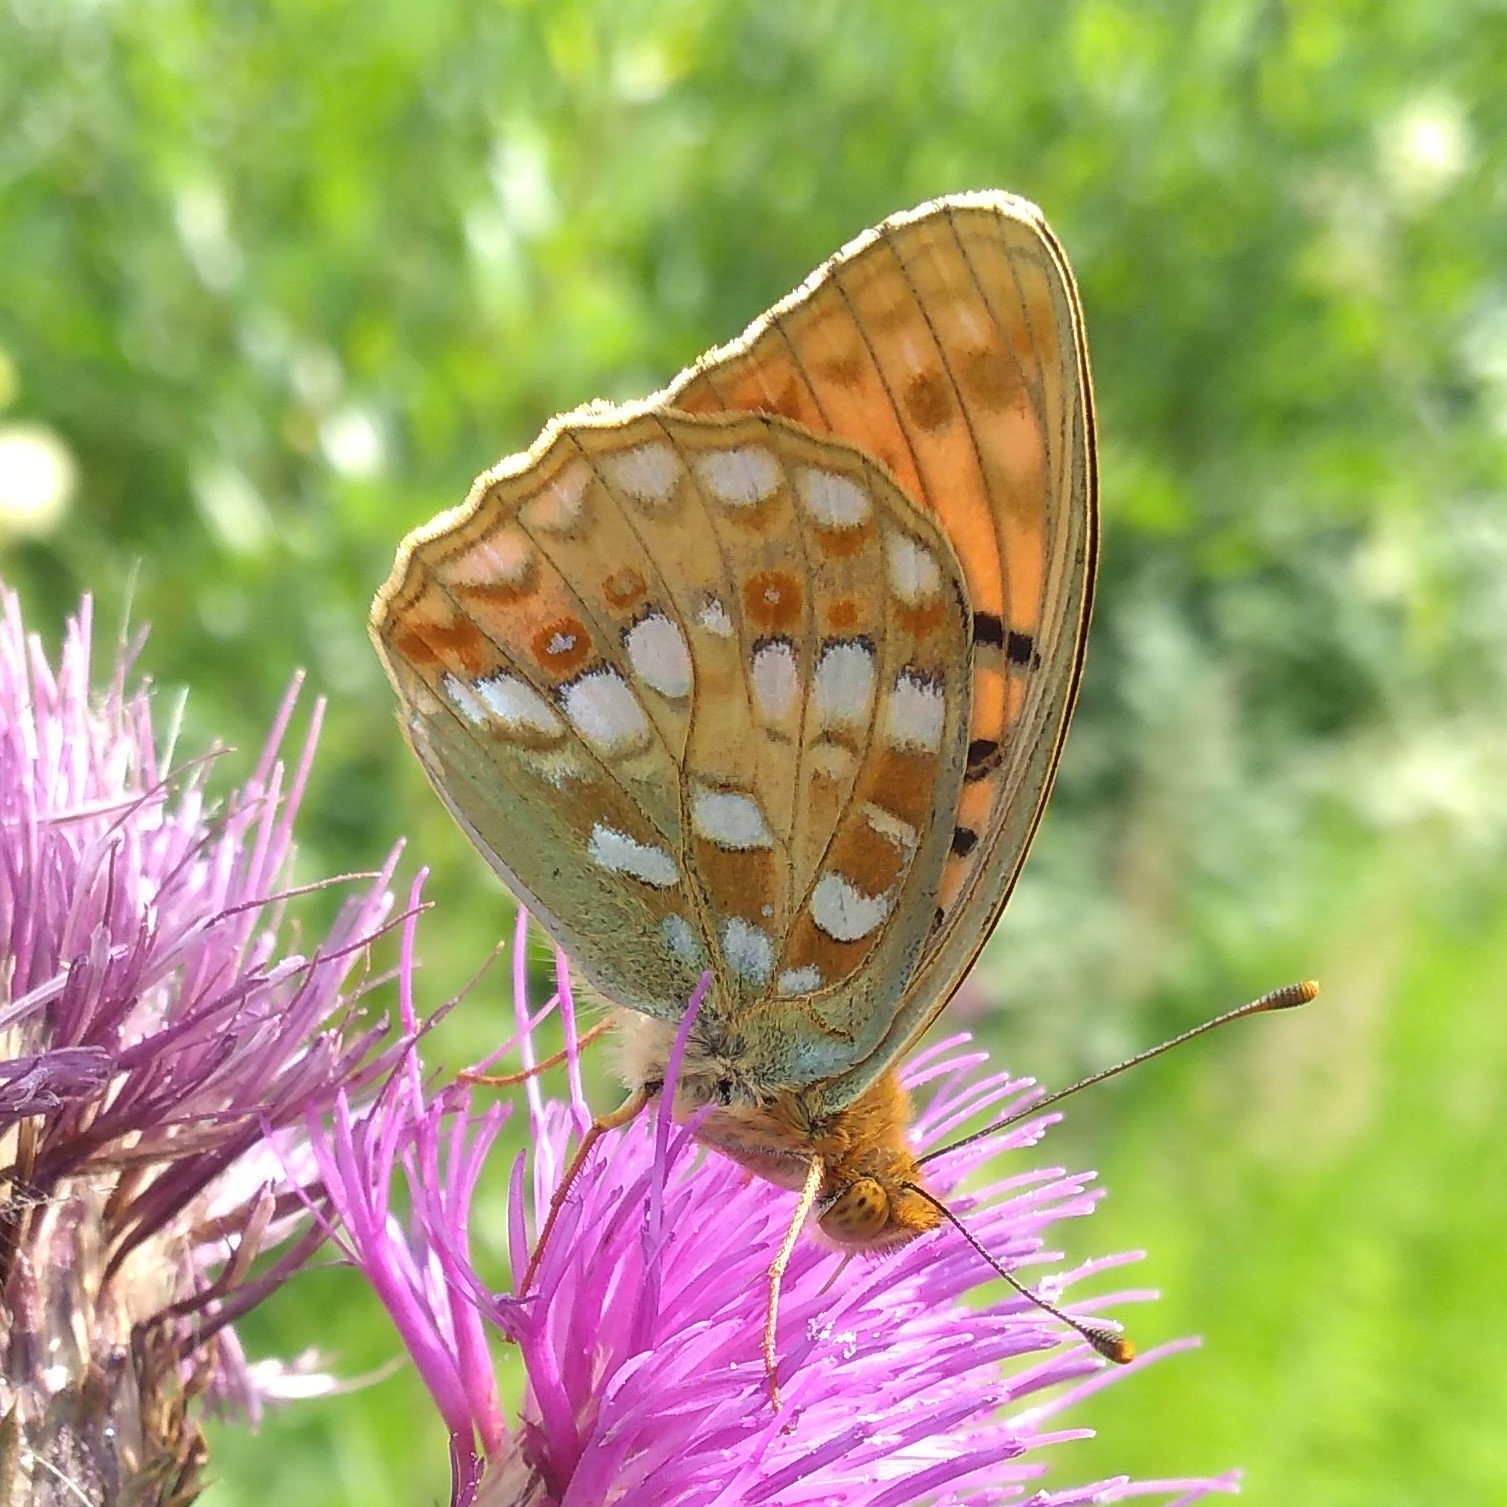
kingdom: Animalia
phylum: Arthropoda
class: Insecta
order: Lepidoptera
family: Nymphalidae
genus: Fabriciana
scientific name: Fabriciana adippe
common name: High brown fritillary
